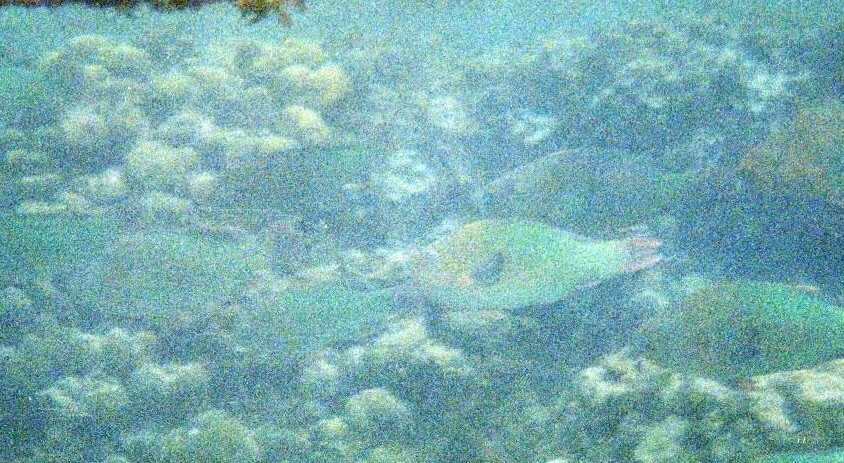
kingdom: Animalia
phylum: Chordata
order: Perciformes
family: Scaridae
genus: Scarus
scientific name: Scarus guacamaia
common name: Rainbow parrotfish
